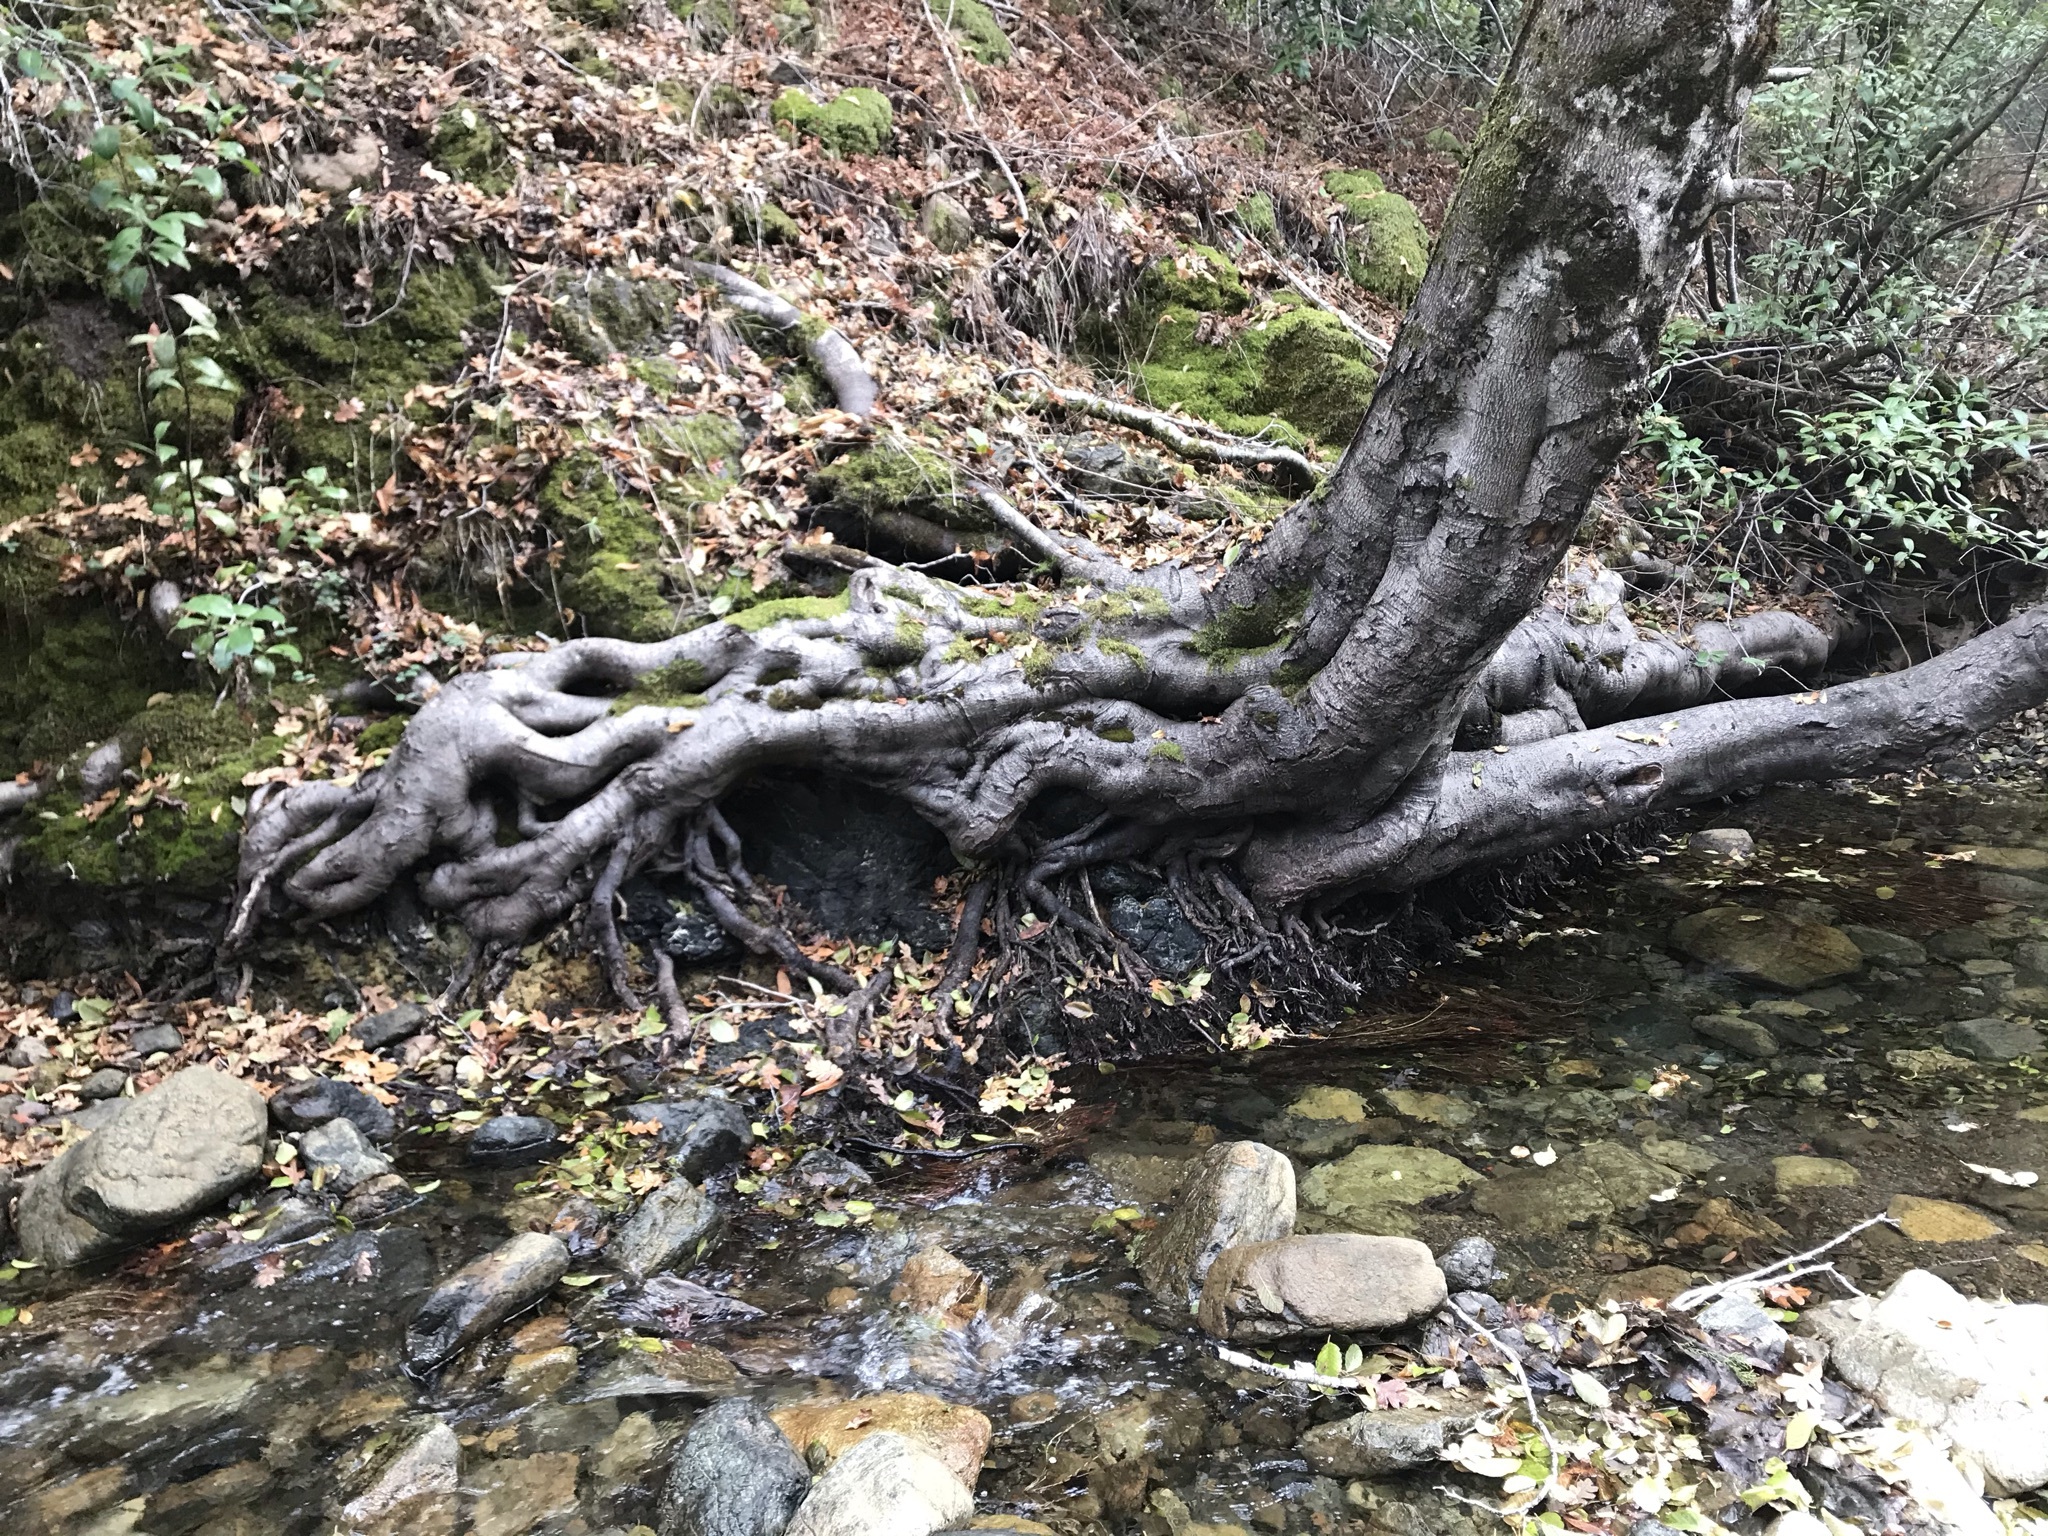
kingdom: Plantae
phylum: Tracheophyta
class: Magnoliopsida
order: Fagales
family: Betulaceae
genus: Alnus
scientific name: Alnus rhombifolia
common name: California alder
